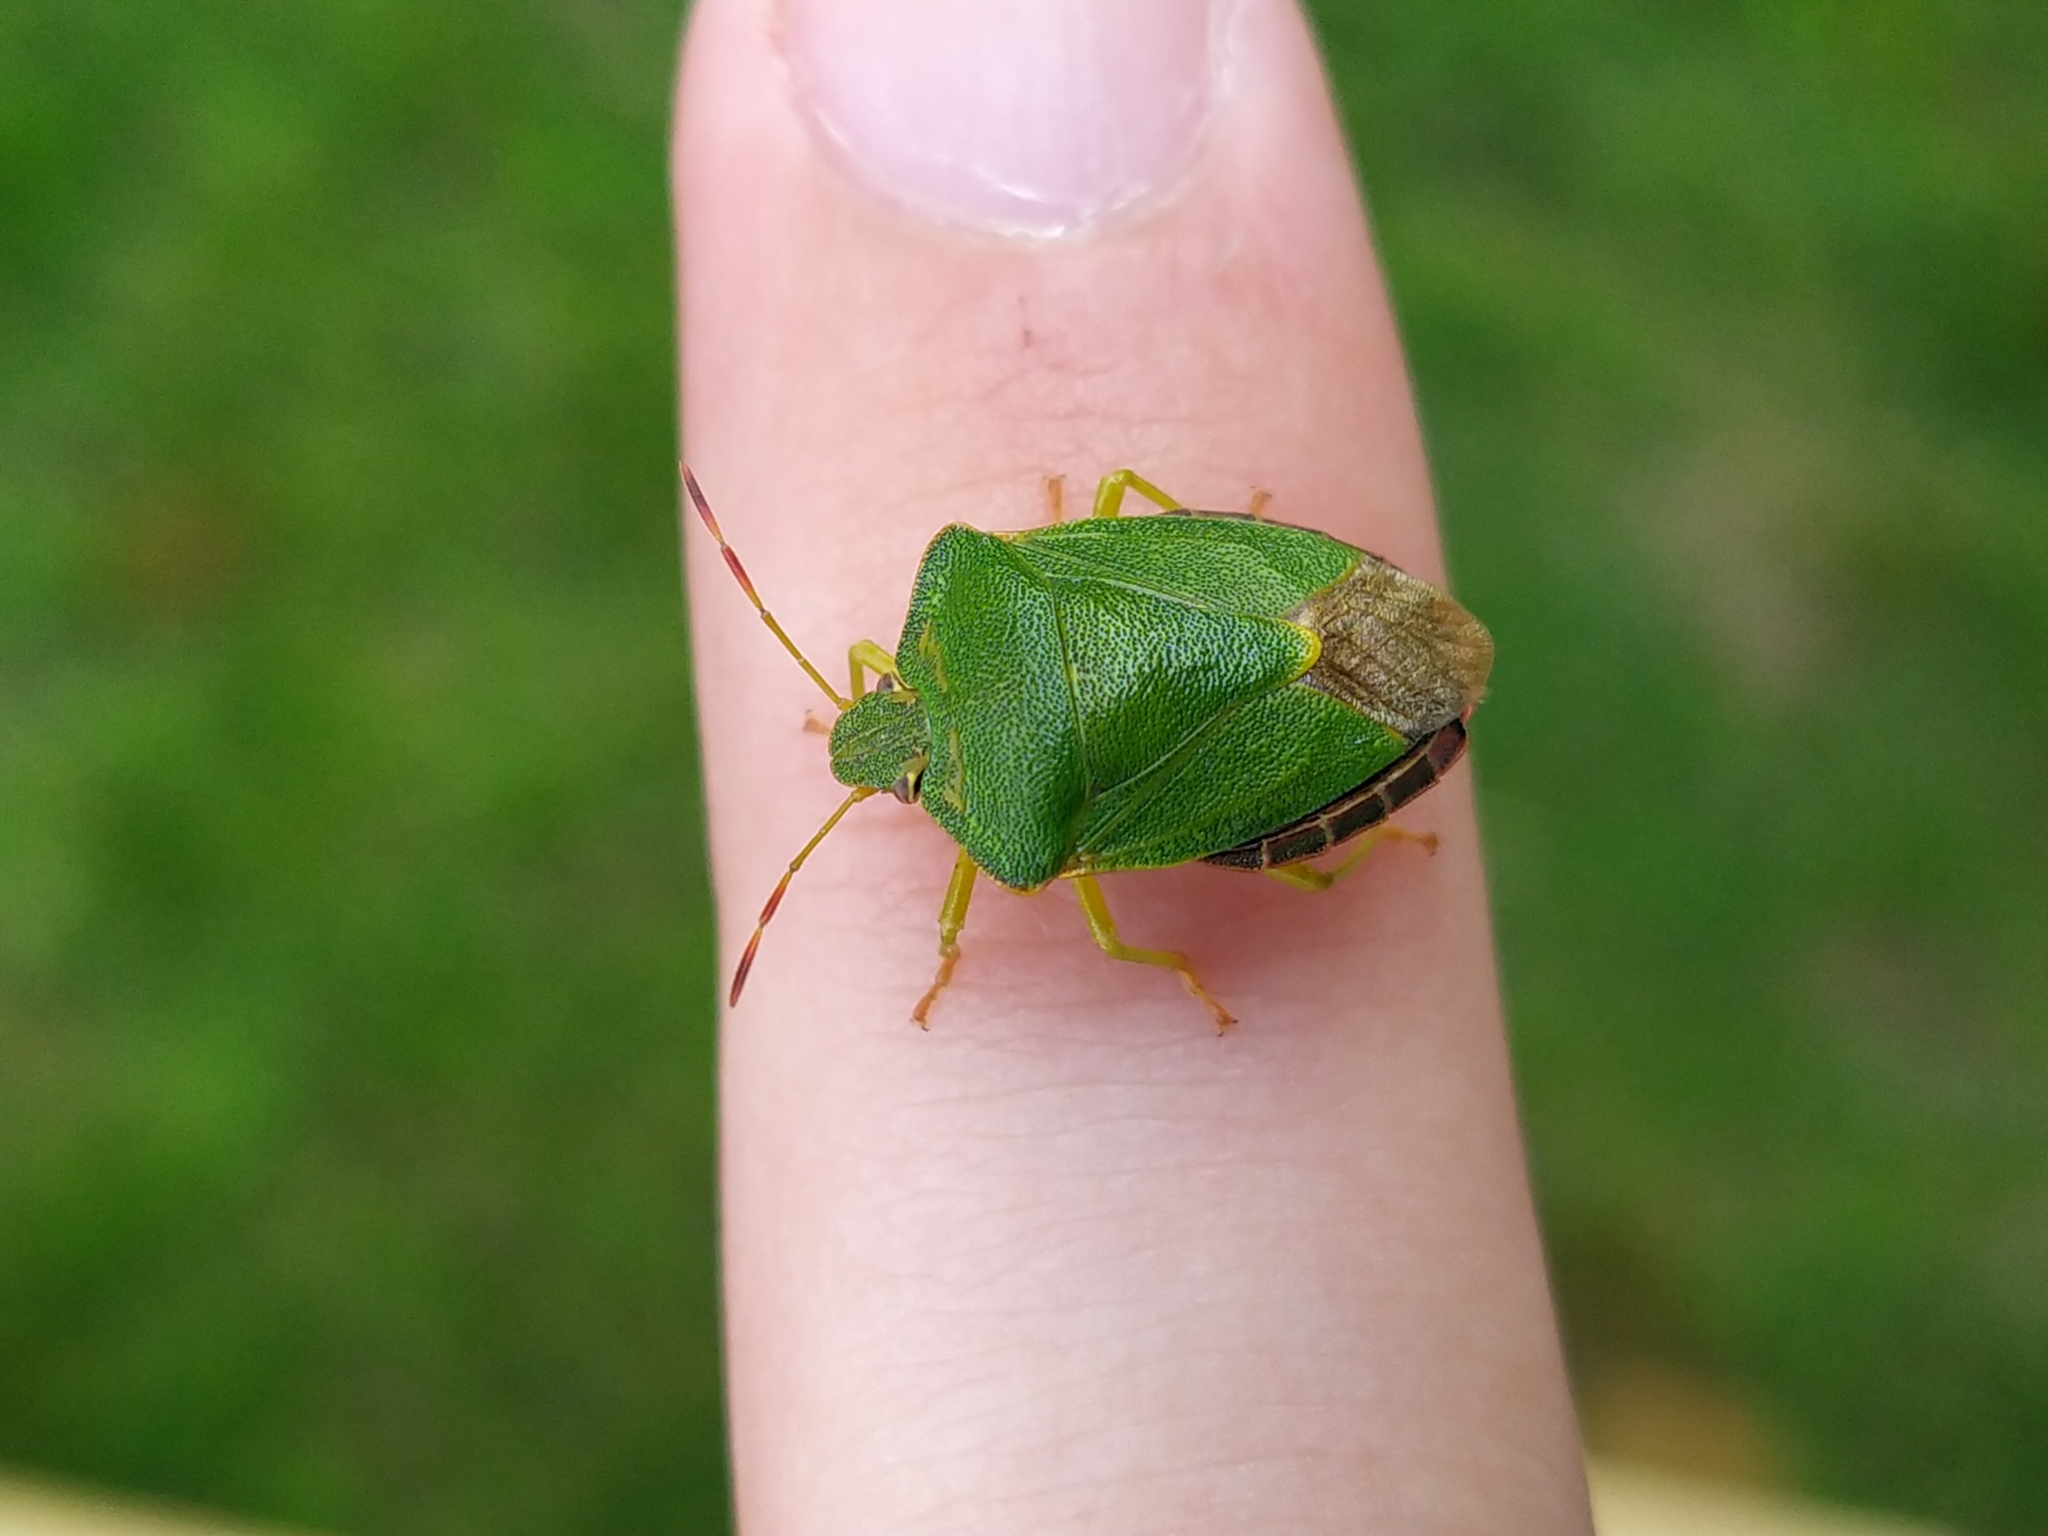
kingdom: Animalia
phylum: Arthropoda
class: Insecta
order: Hemiptera
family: Pentatomidae
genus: Palomena
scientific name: Palomena prasina
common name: Green shieldbug
